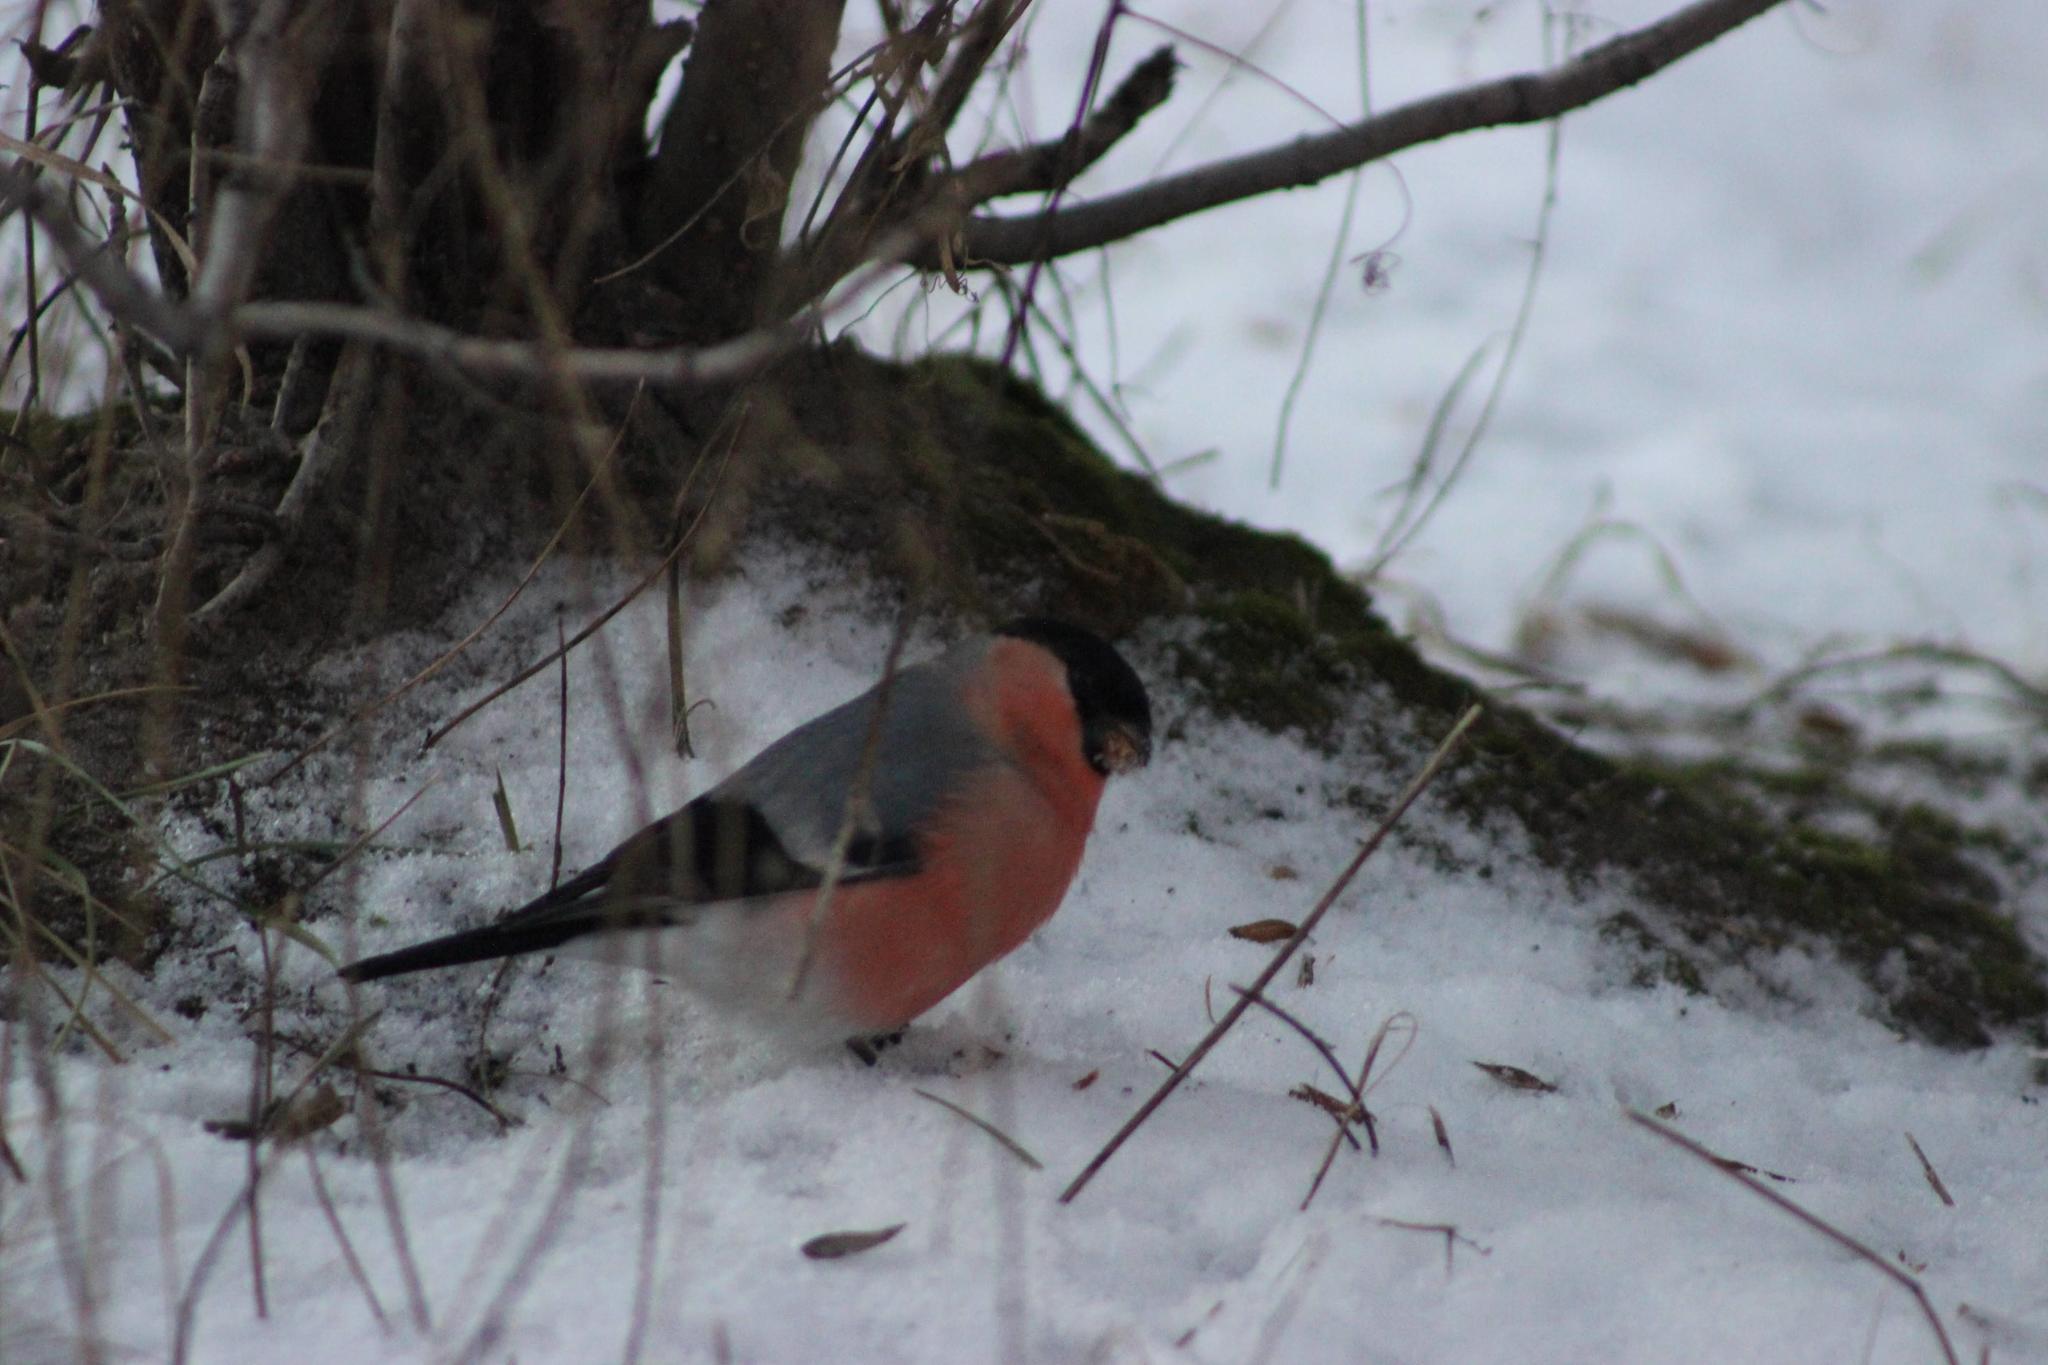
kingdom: Animalia
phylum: Chordata
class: Aves
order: Passeriformes
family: Fringillidae
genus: Pyrrhula
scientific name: Pyrrhula pyrrhula
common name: Eurasian bullfinch
